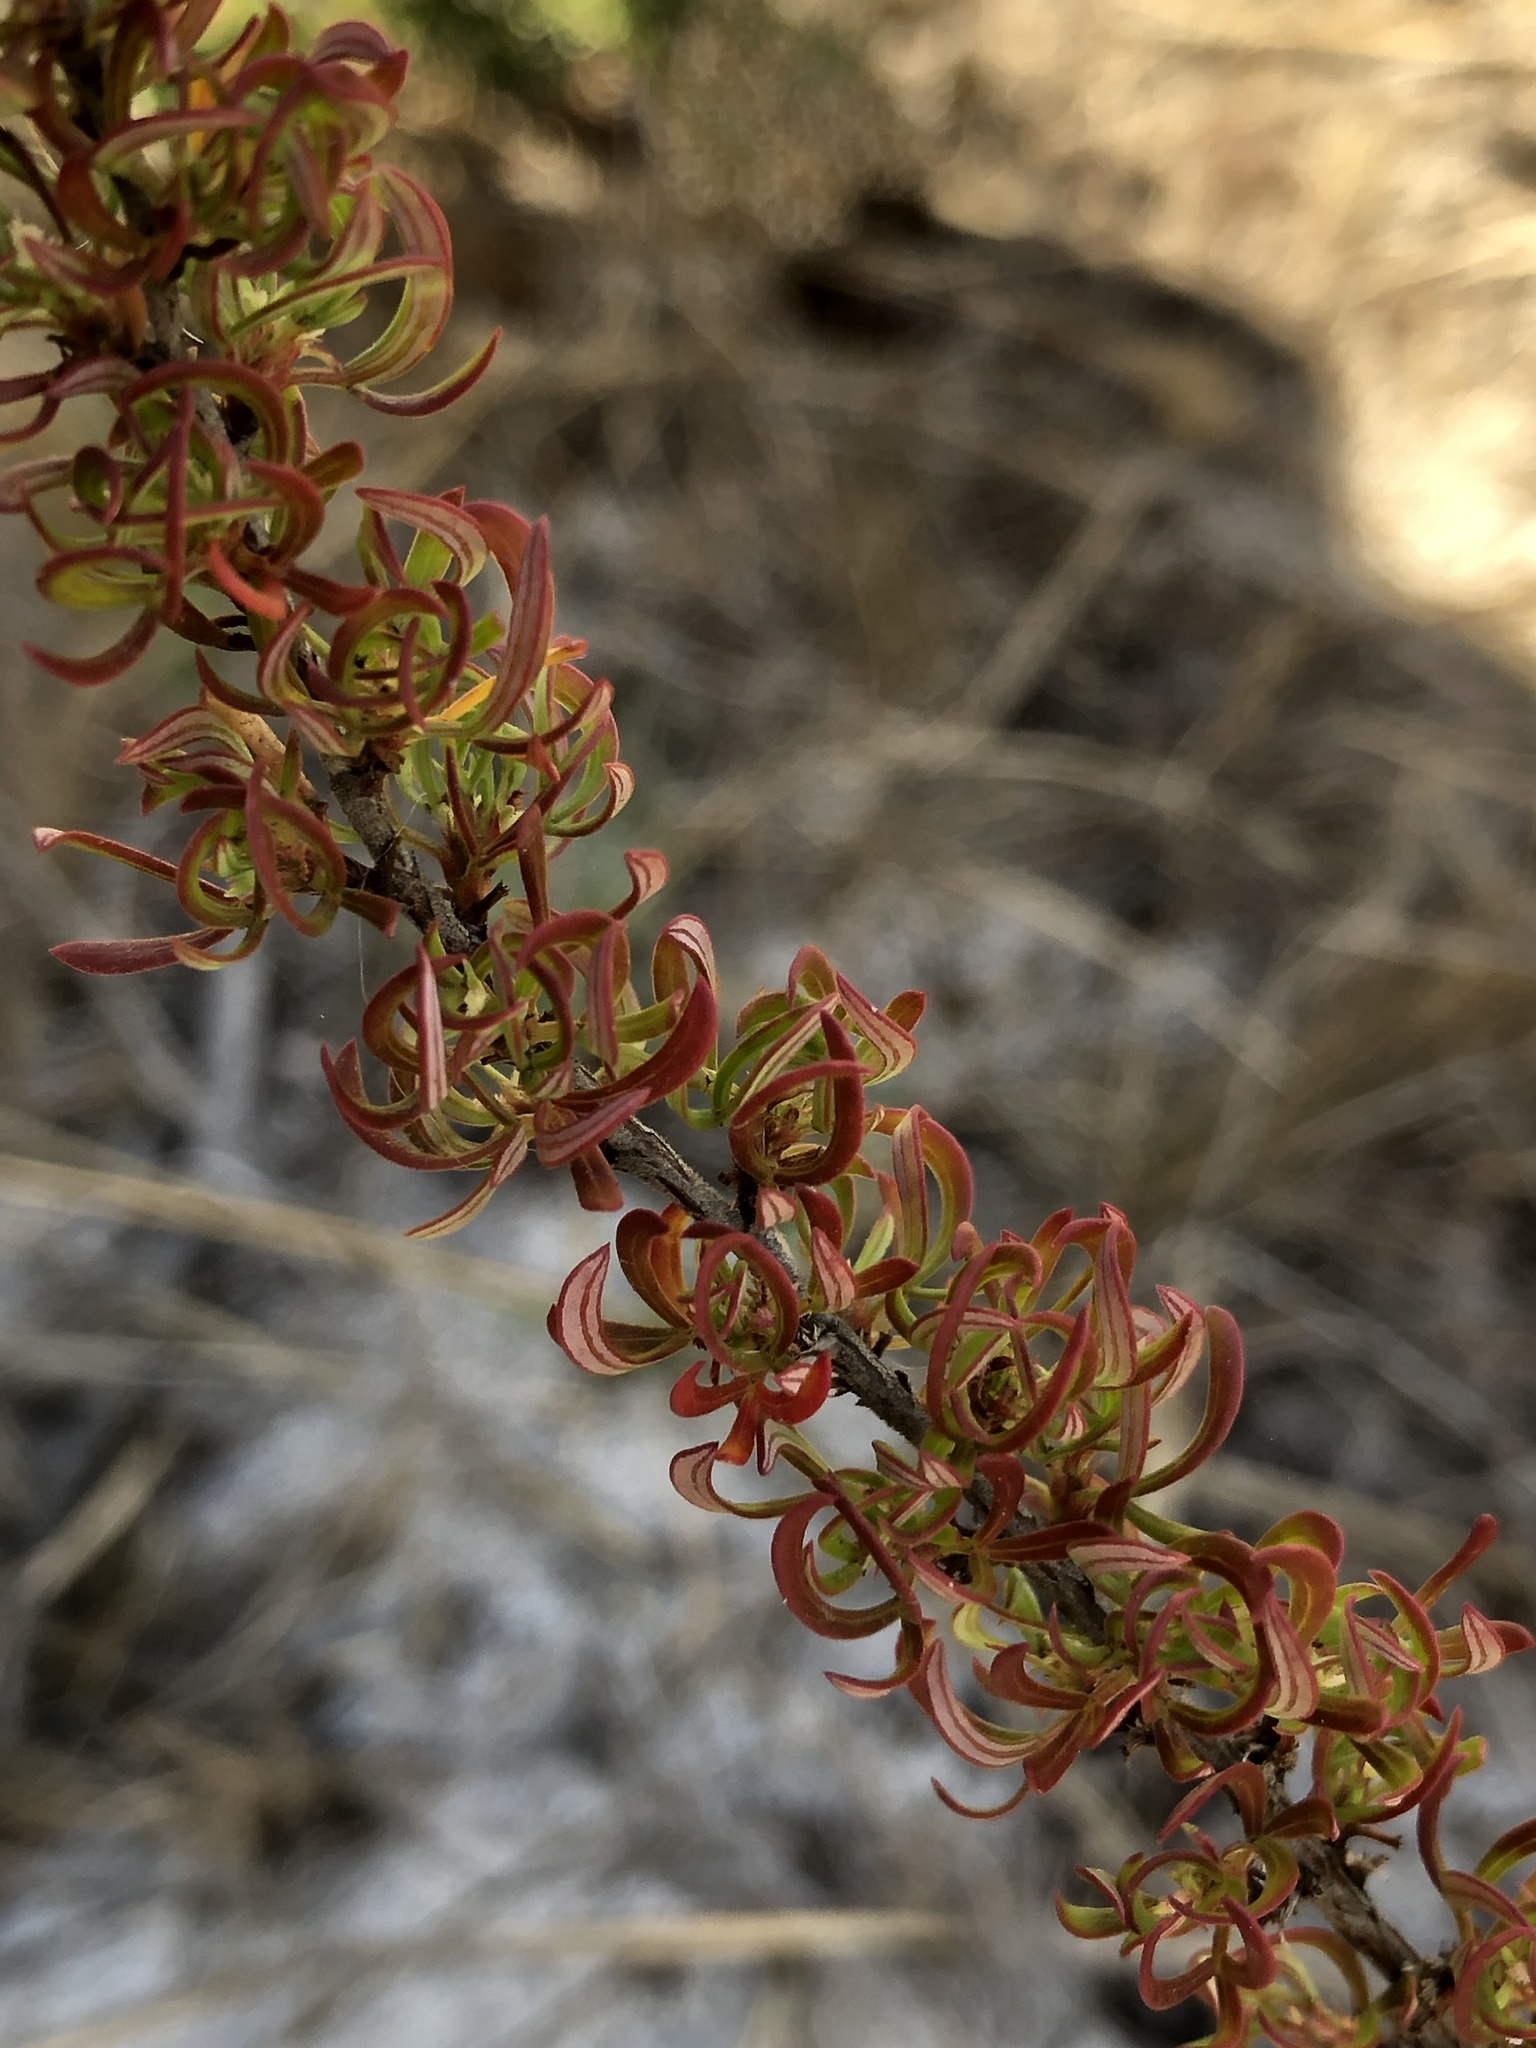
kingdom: Plantae
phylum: Tracheophyta
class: Magnoliopsida
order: Rosales
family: Rosaceae
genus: Cliffortia
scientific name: Cliffortia falcata
